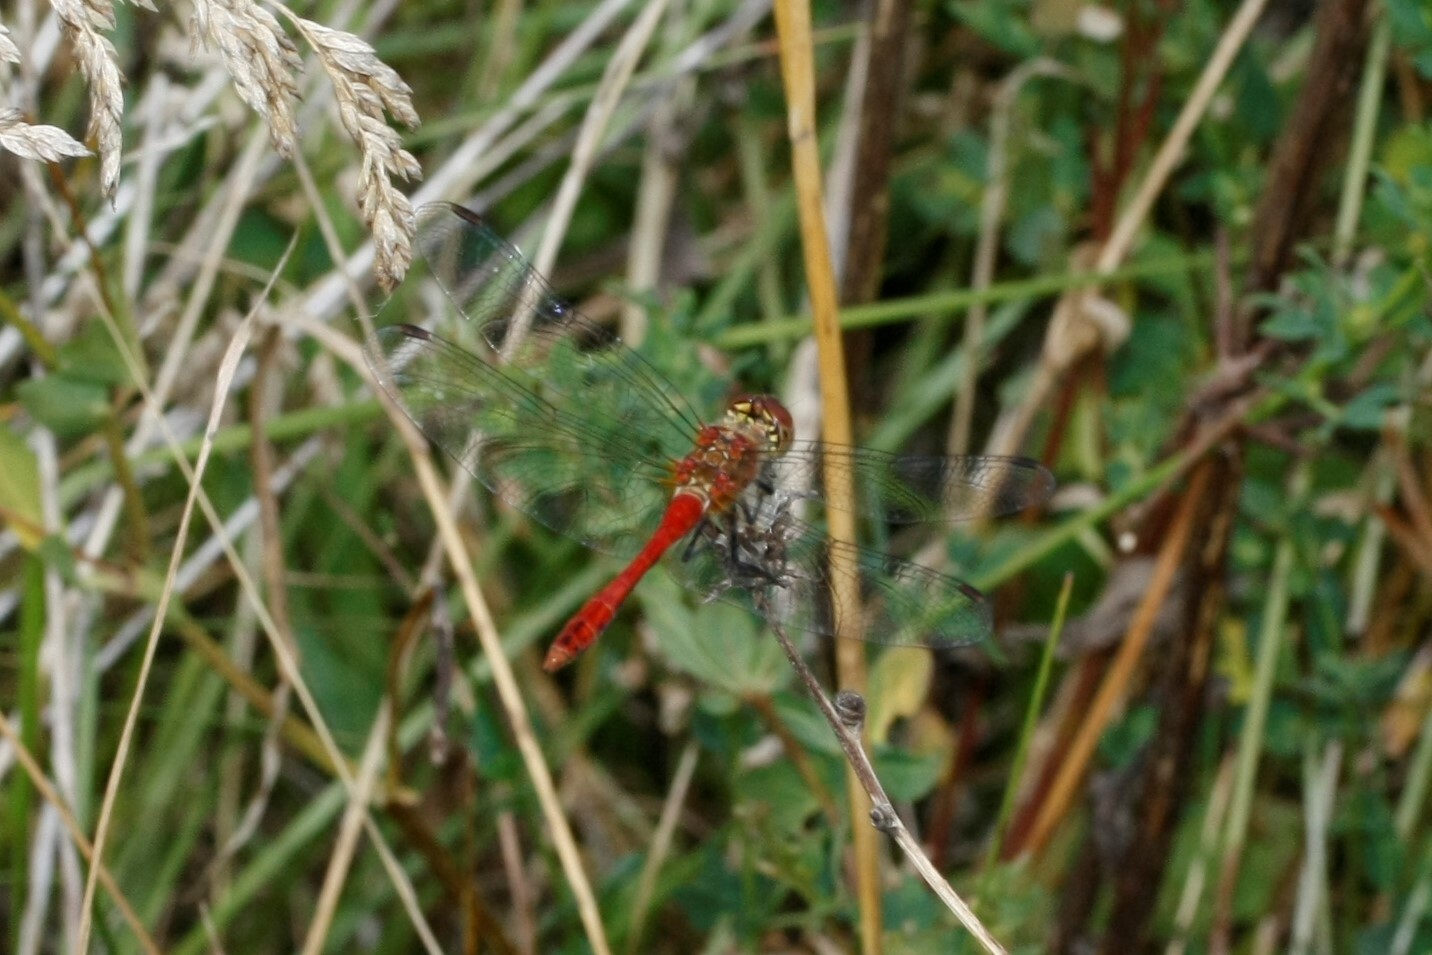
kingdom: Animalia
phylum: Arthropoda
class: Insecta
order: Odonata
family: Libellulidae
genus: Sympetrum
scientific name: Sympetrum sanguineum
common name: Ruddy darter
